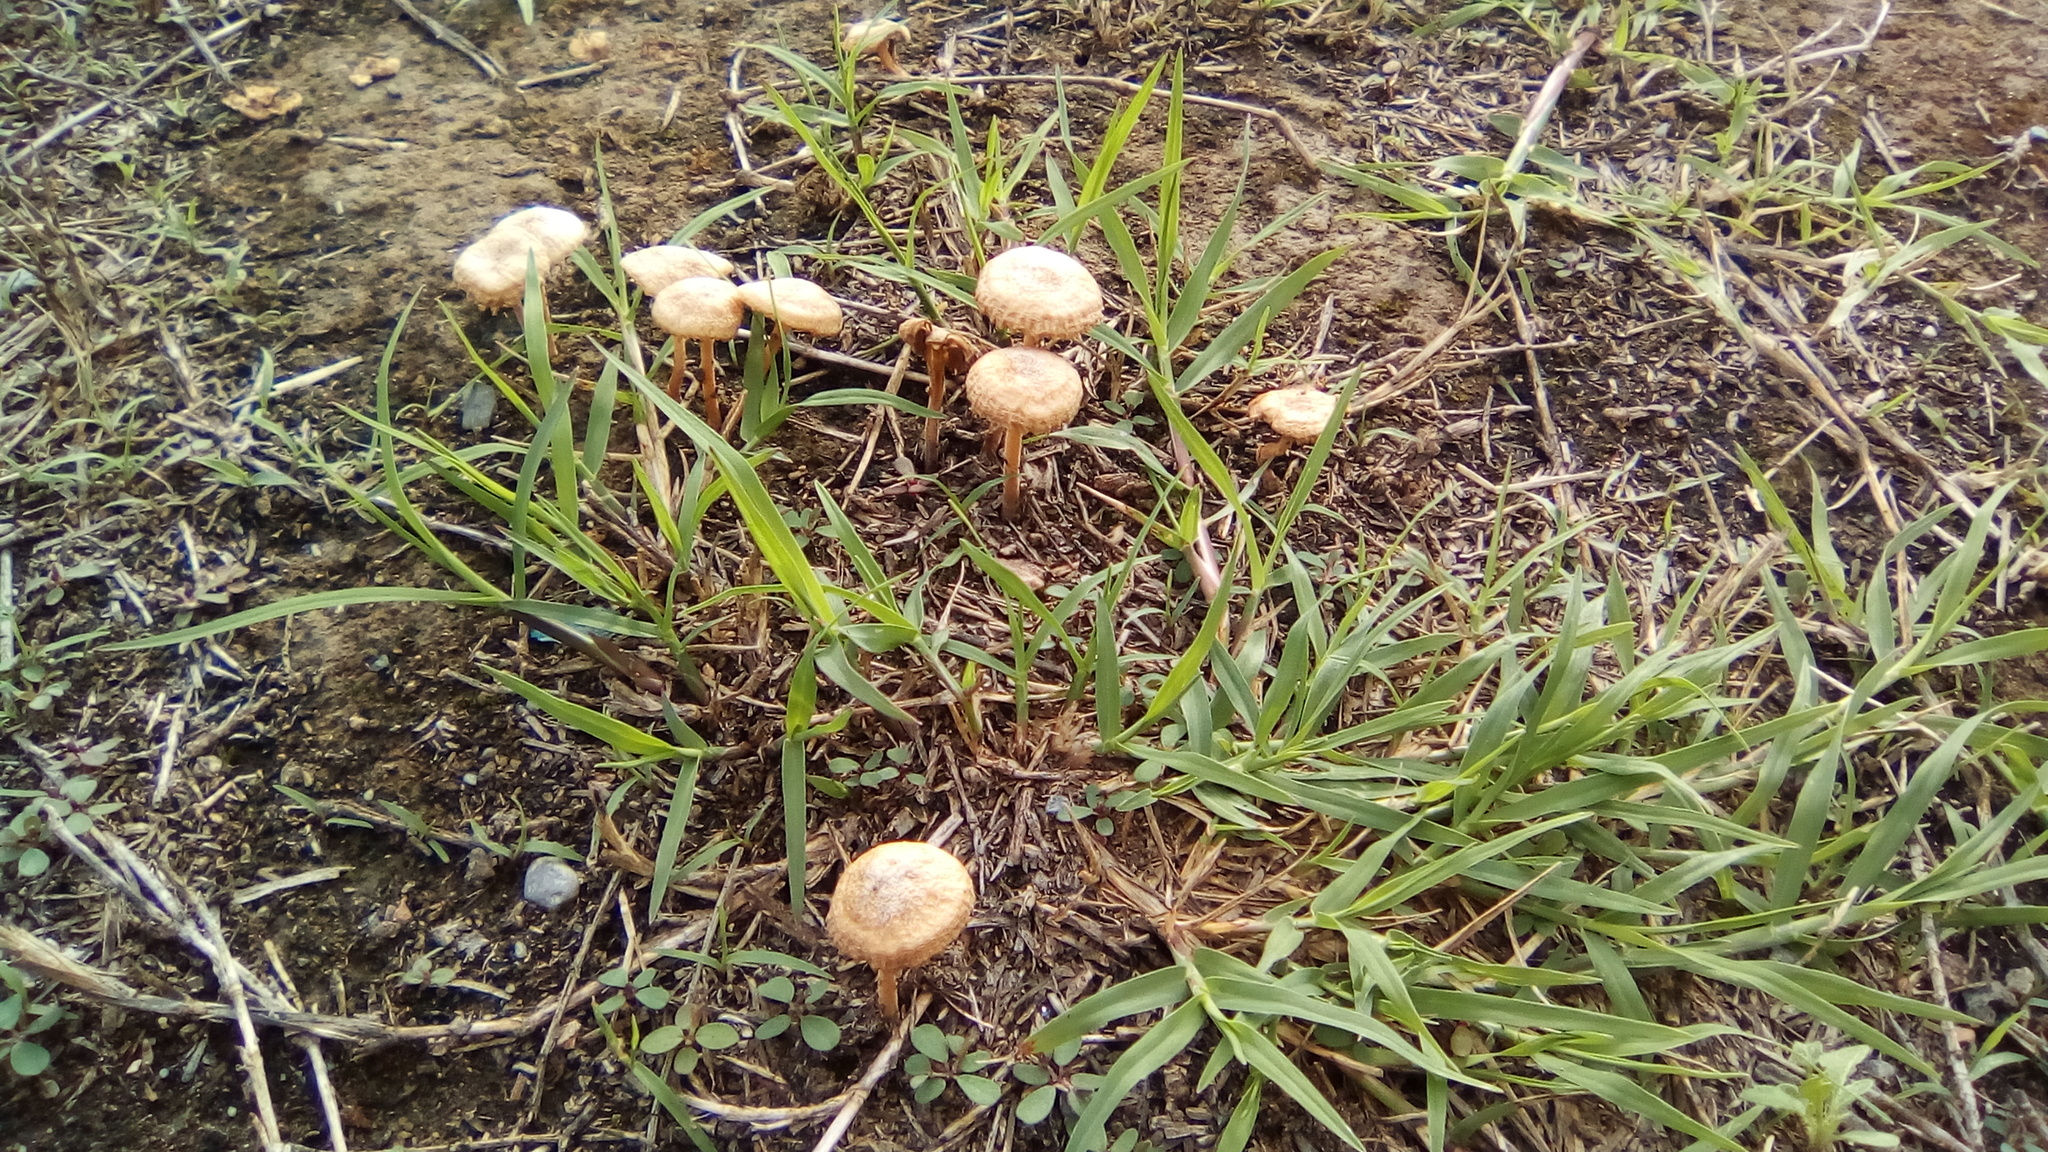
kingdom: Fungi
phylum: Basidiomycota
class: Agaricomycetes
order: Agaricales
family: Strophariaceae
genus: Agrocybe
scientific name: Agrocybe pediades
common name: Common fieldcap
